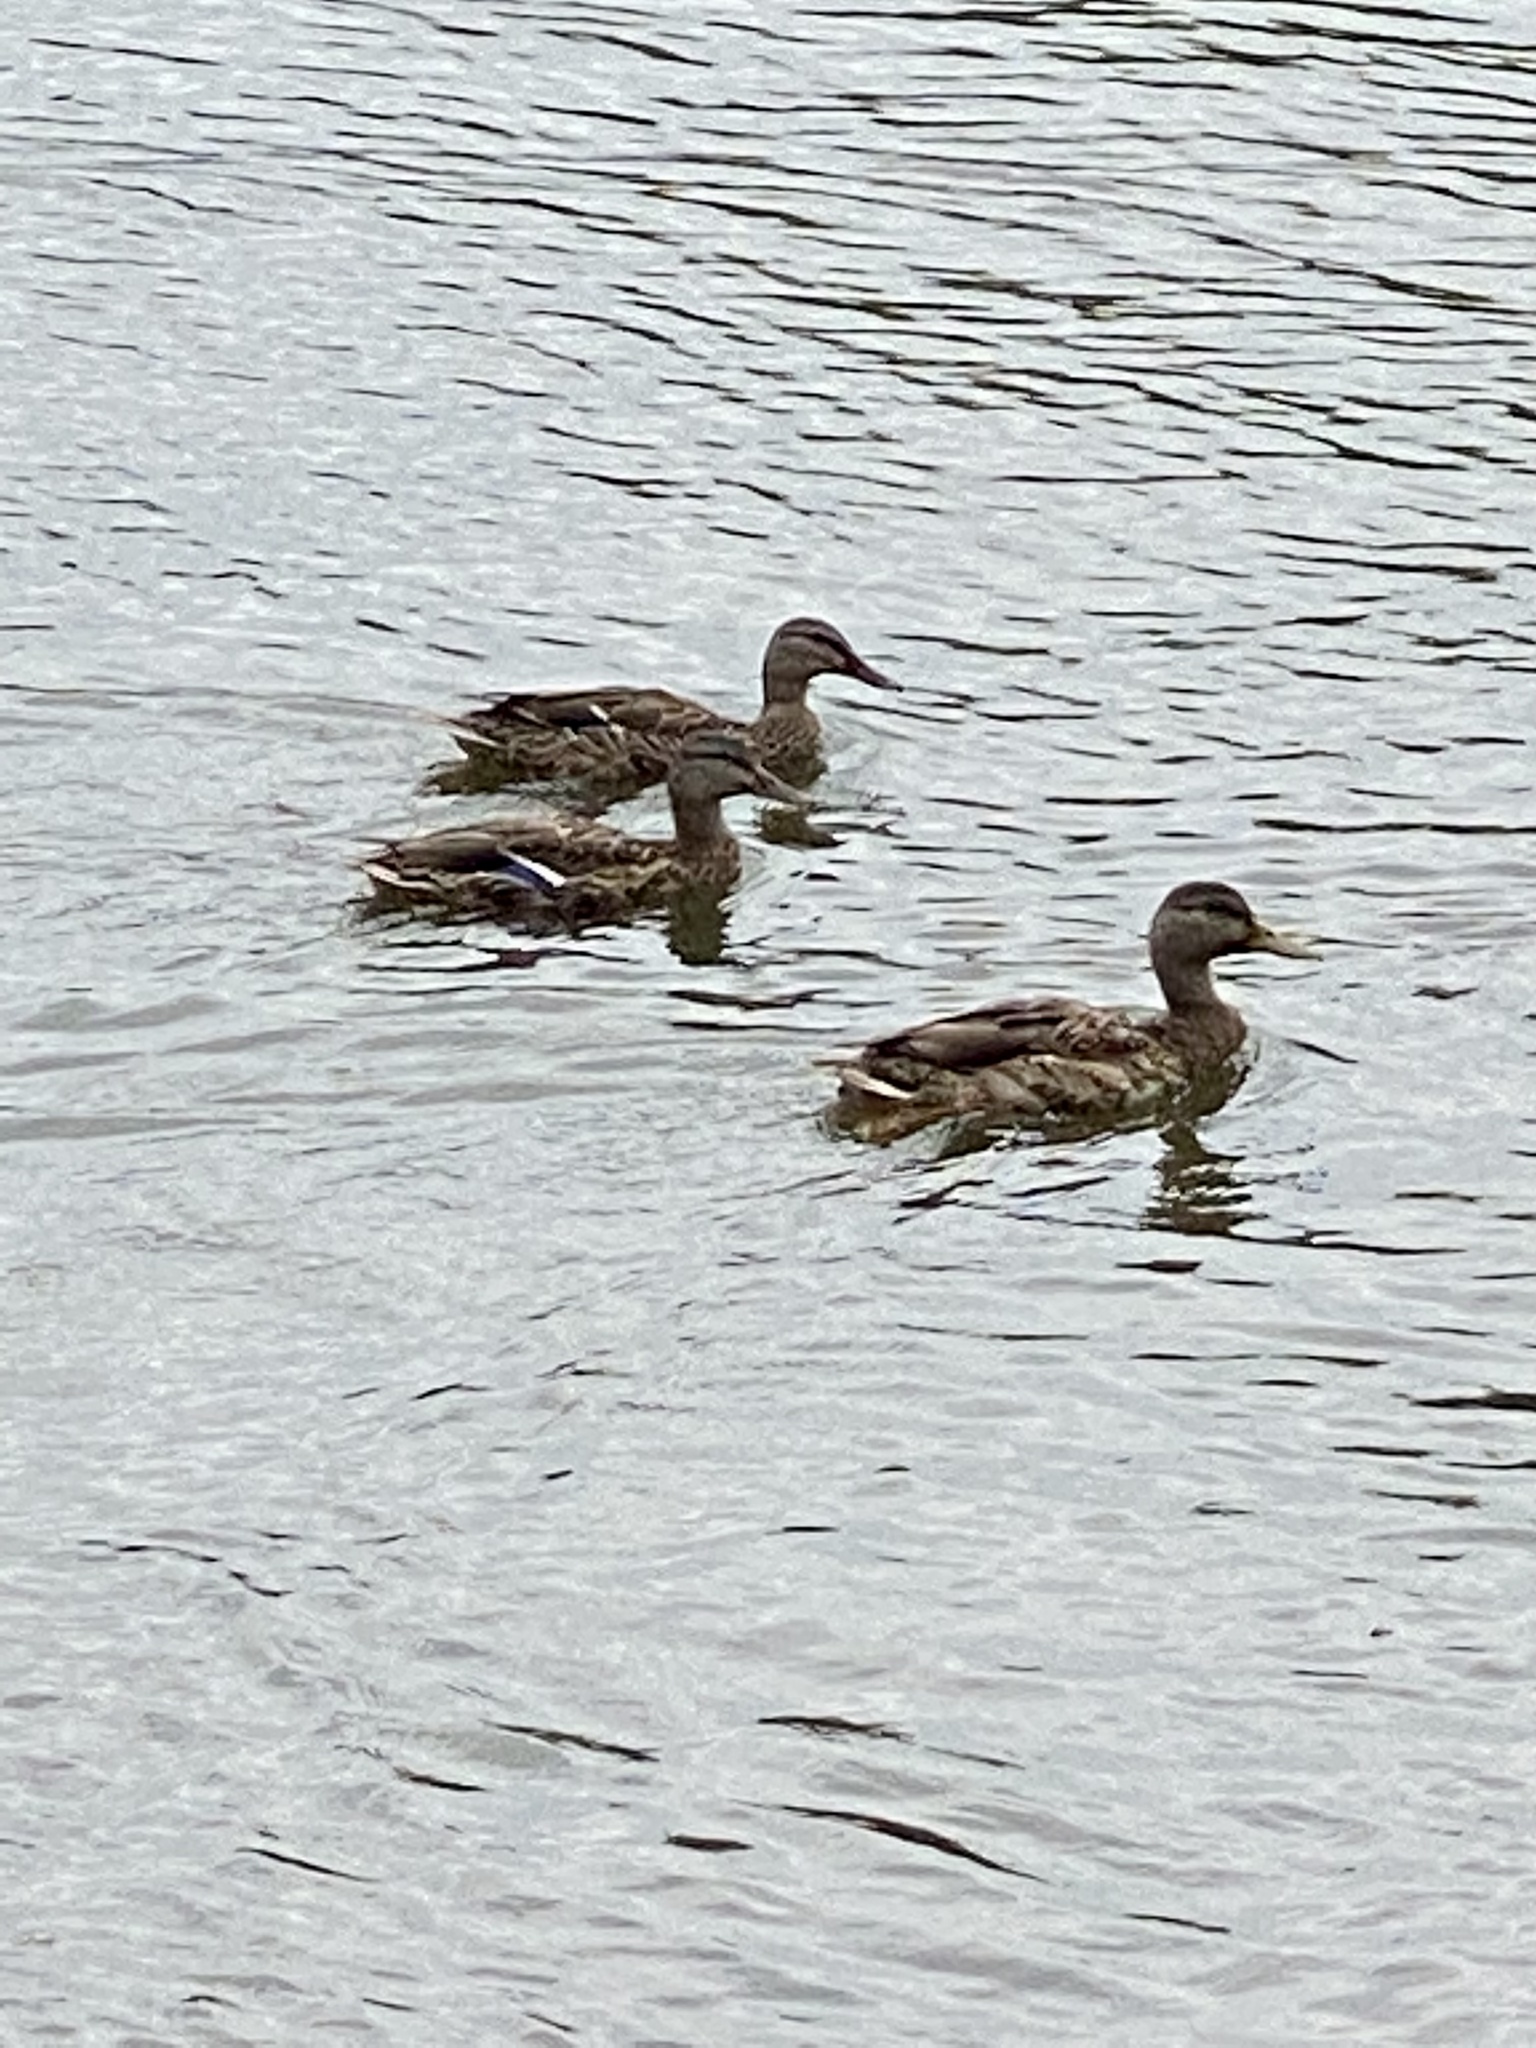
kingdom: Animalia
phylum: Chordata
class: Aves
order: Anseriformes
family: Anatidae
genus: Anas
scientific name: Anas platyrhynchos
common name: Mallard
